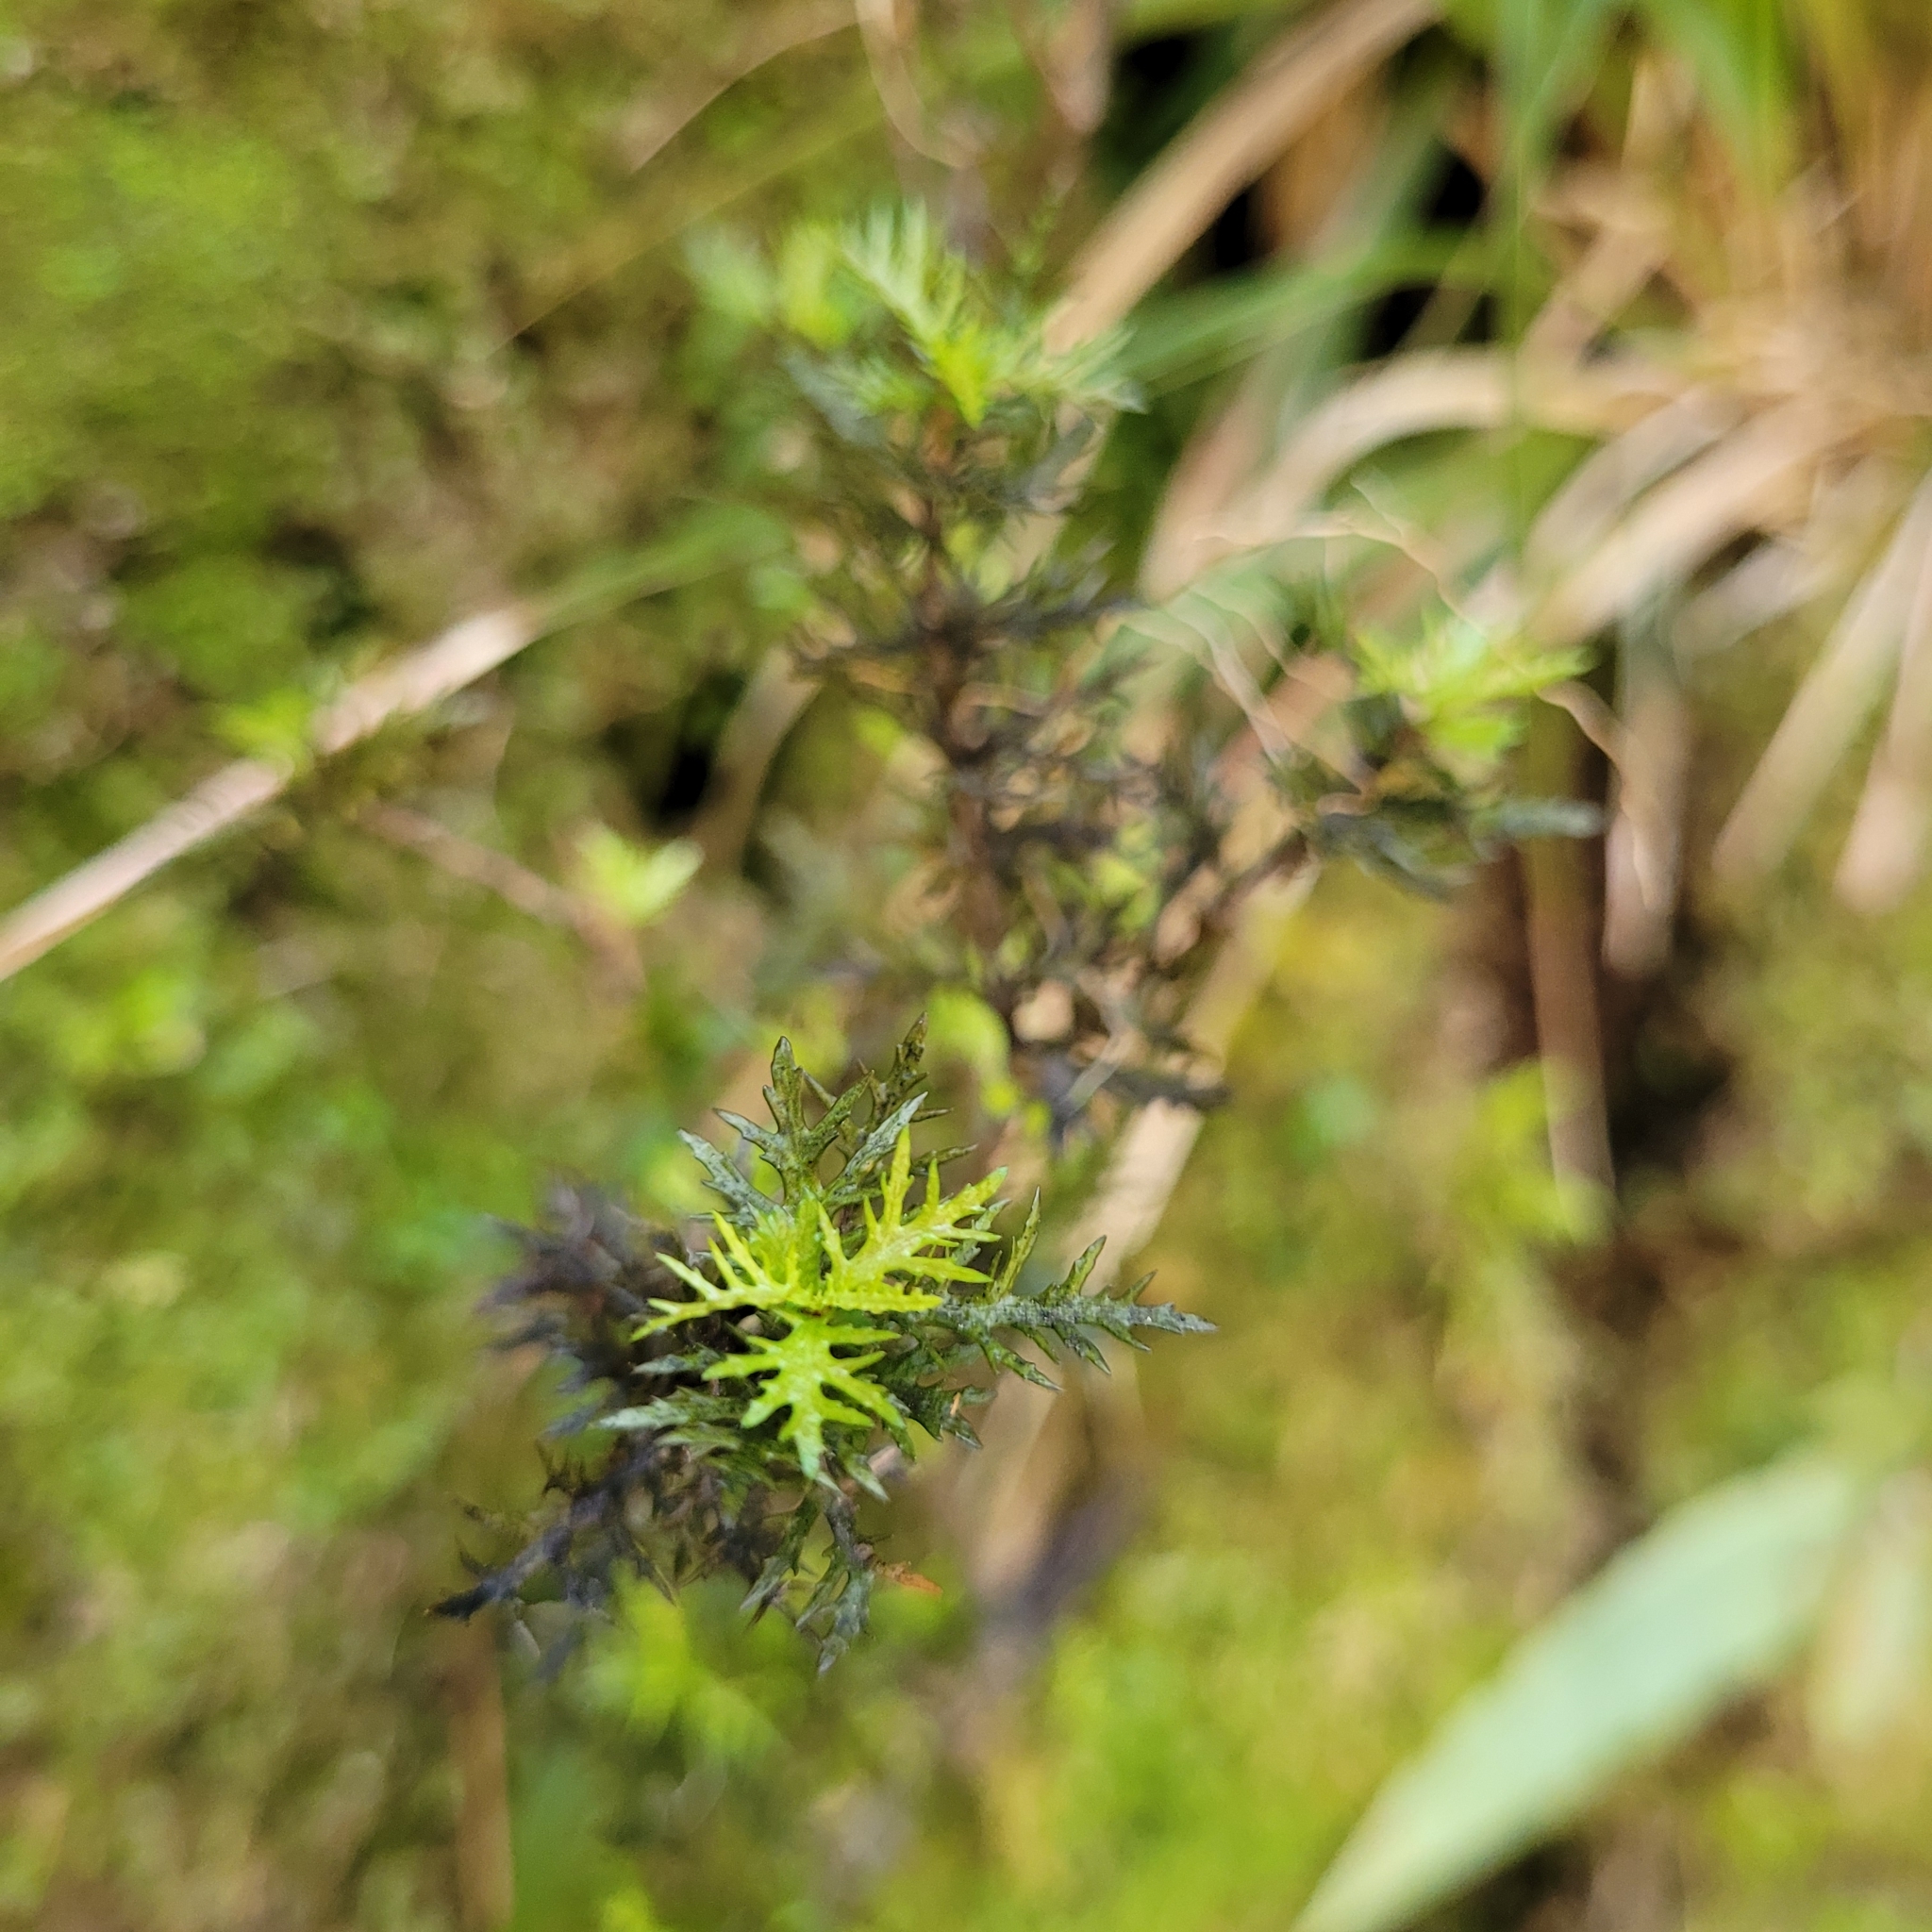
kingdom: Plantae
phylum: Tracheophyta
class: Magnoliopsida
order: Apiales
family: Pittosporaceae
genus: Pittosporum
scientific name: Pittosporum divaricatum
